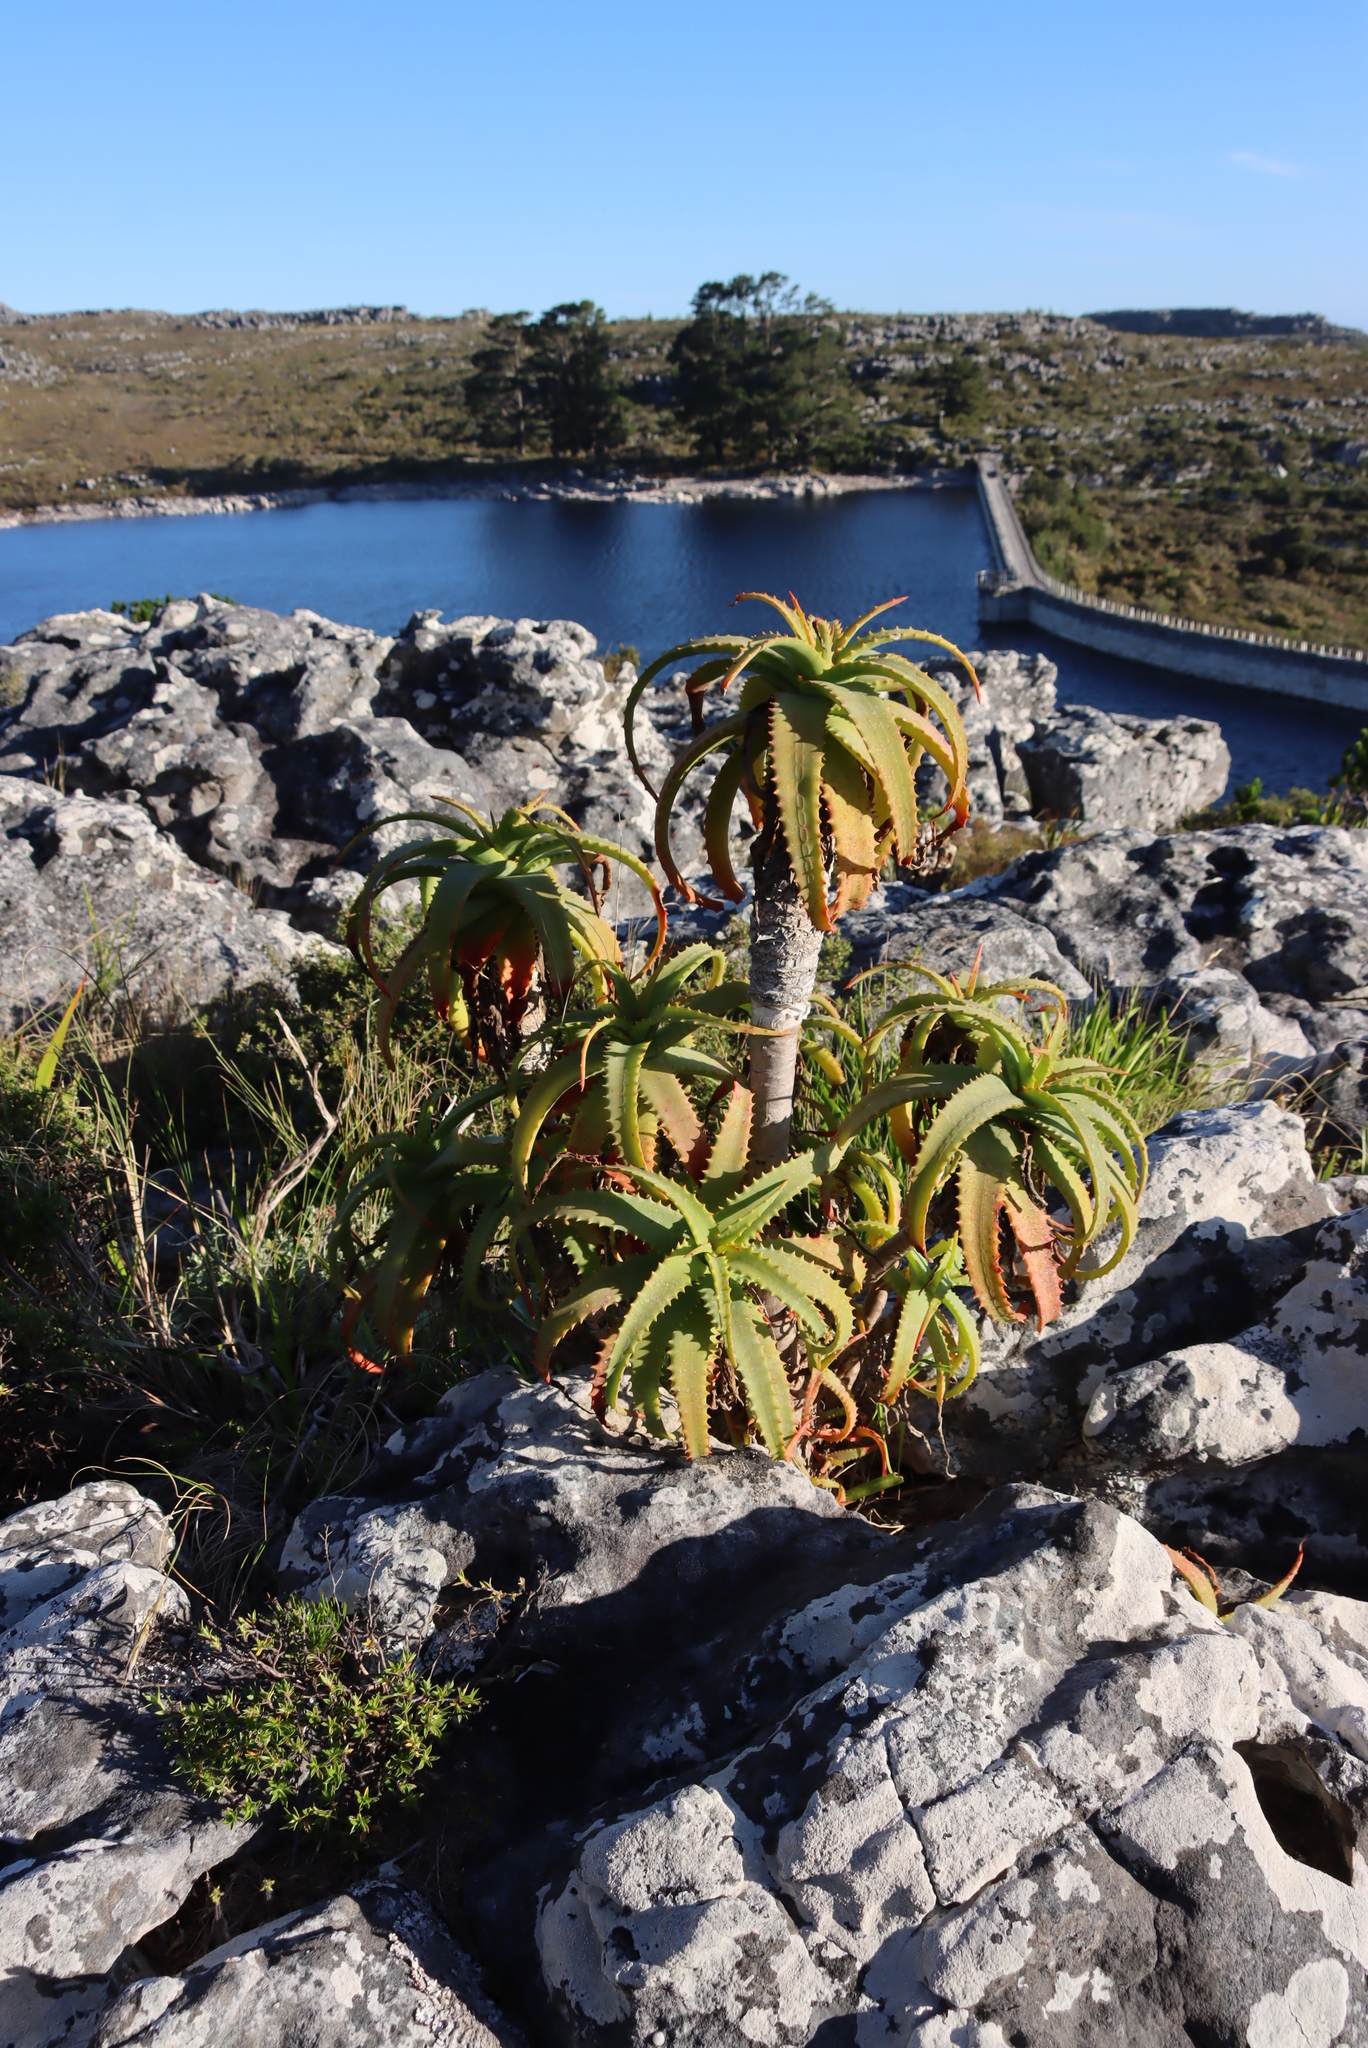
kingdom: Plantae
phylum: Tracheophyta
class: Liliopsida
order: Asparagales
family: Asphodelaceae
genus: Aloe
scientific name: Aloe arborescens
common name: Candelabra aloe
